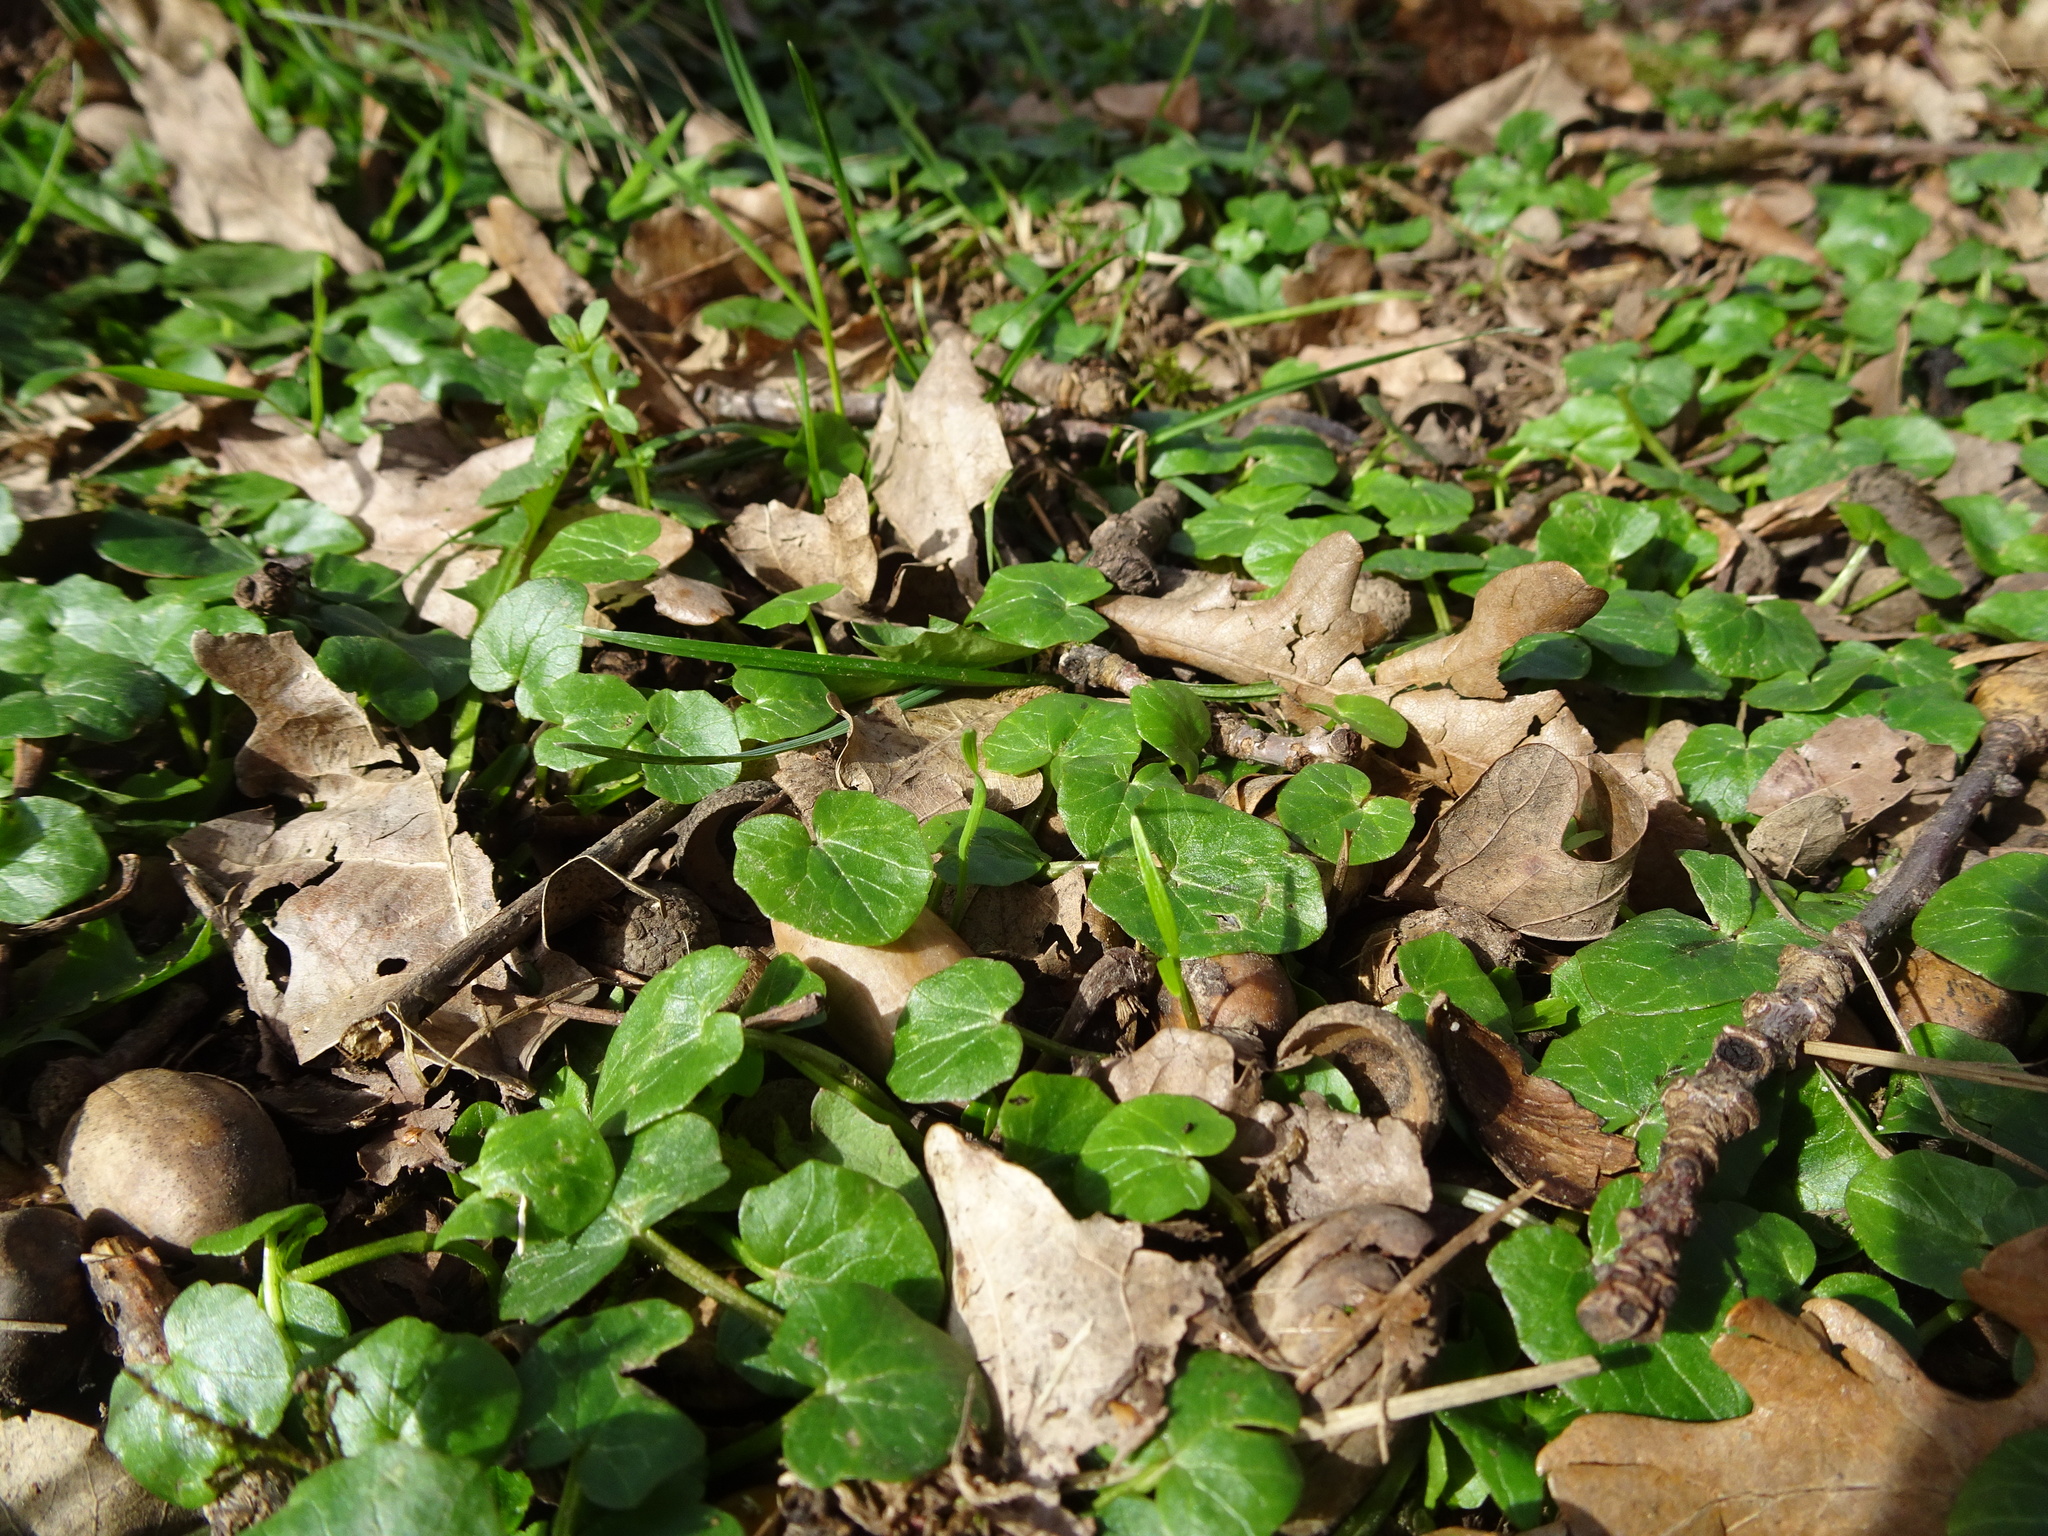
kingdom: Plantae
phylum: Tracheophyta
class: Magnoliopsida
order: Ranunculales
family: Ranunculaceae
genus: Ficaria
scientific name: Ficaria verna
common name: Lesser celandine
